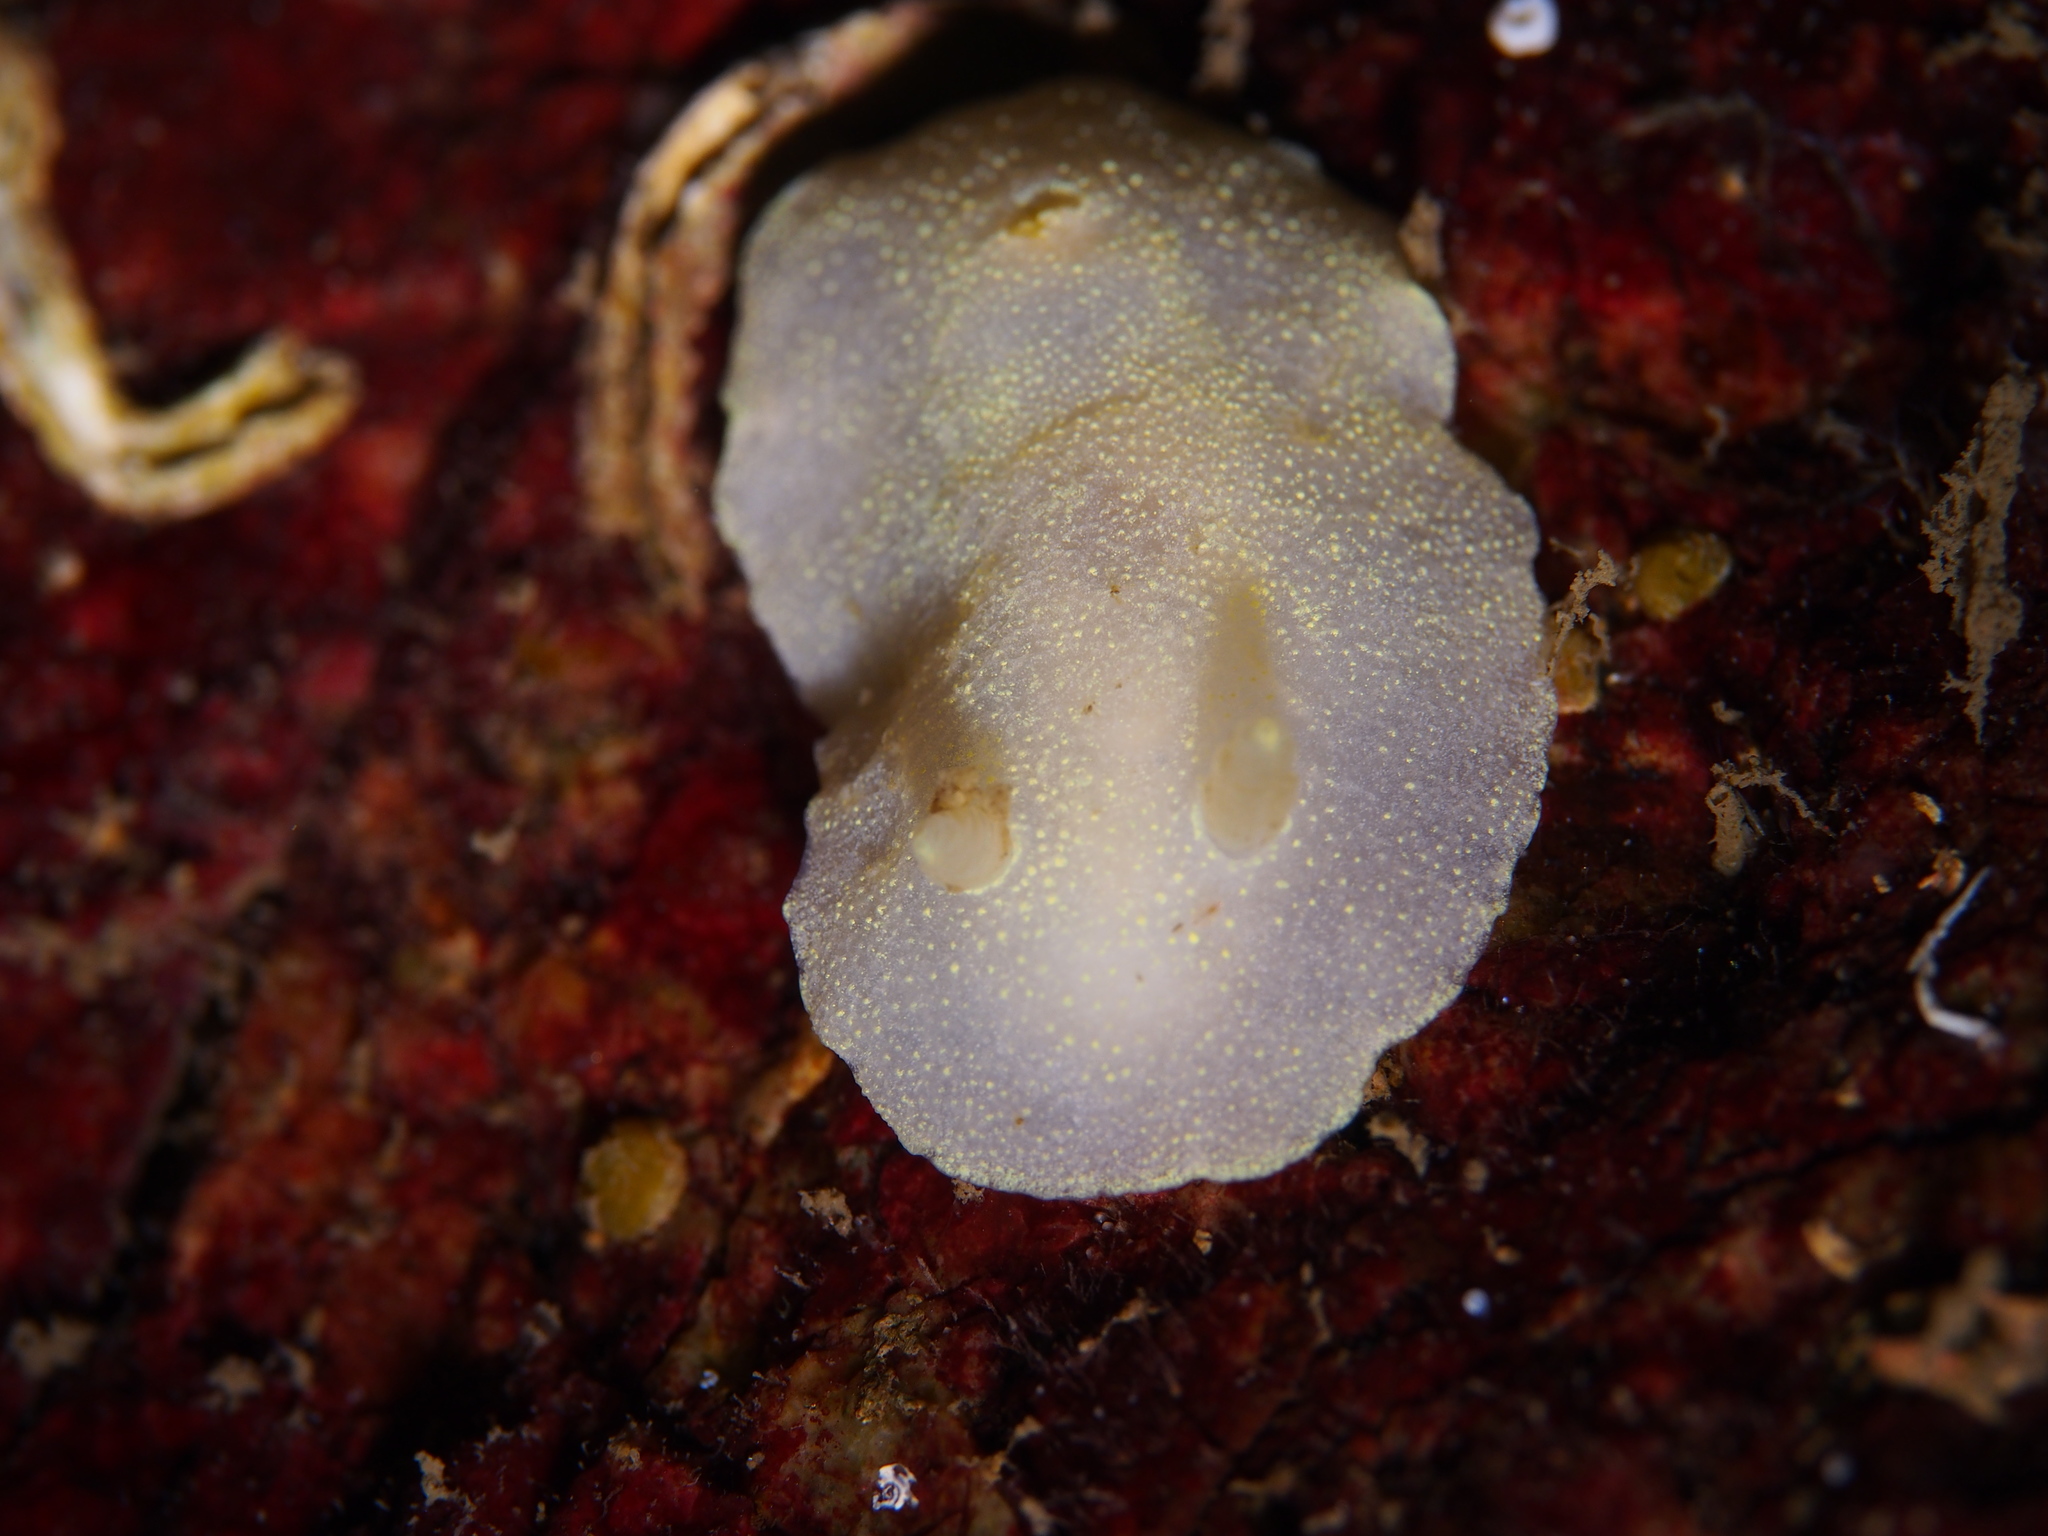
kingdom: Animalia
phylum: Mollusca
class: Gastropoda
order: Nudibranchia
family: Cadlinidae
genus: Cadlina
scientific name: Cadlina laevis
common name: White atlantic cadlina
